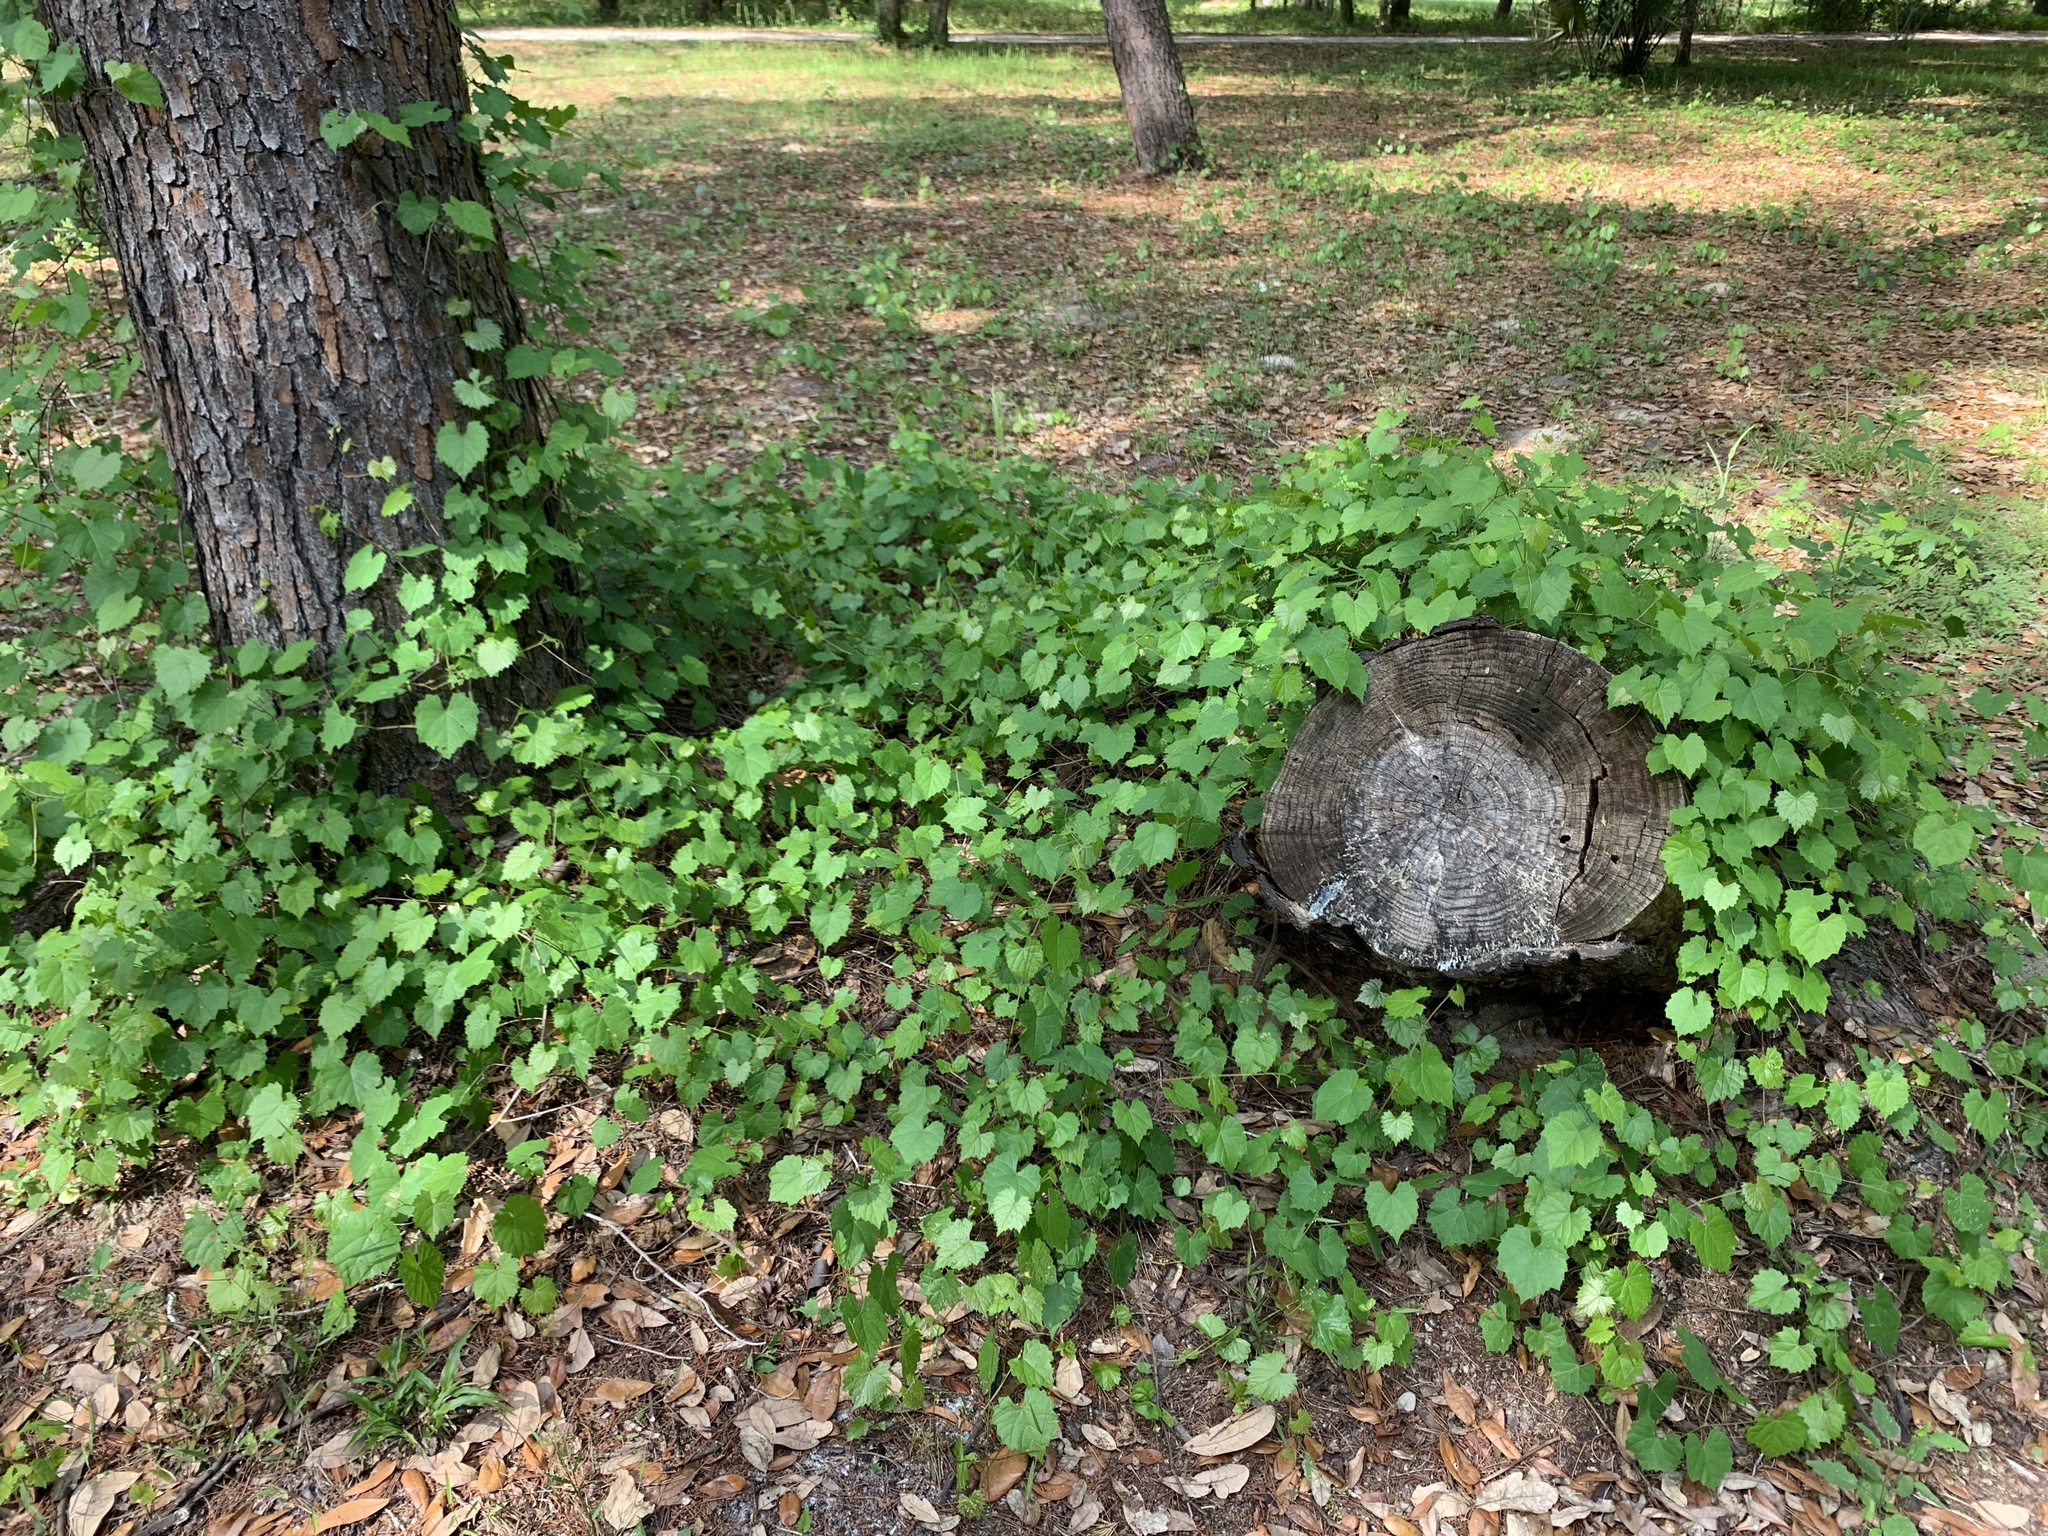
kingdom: Plantae
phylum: Tracheophyta
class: Magnoliopsida
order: Vitales
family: Vitaceae
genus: Vitis
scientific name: Vitis rotundifolia
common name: Muscadine grape
